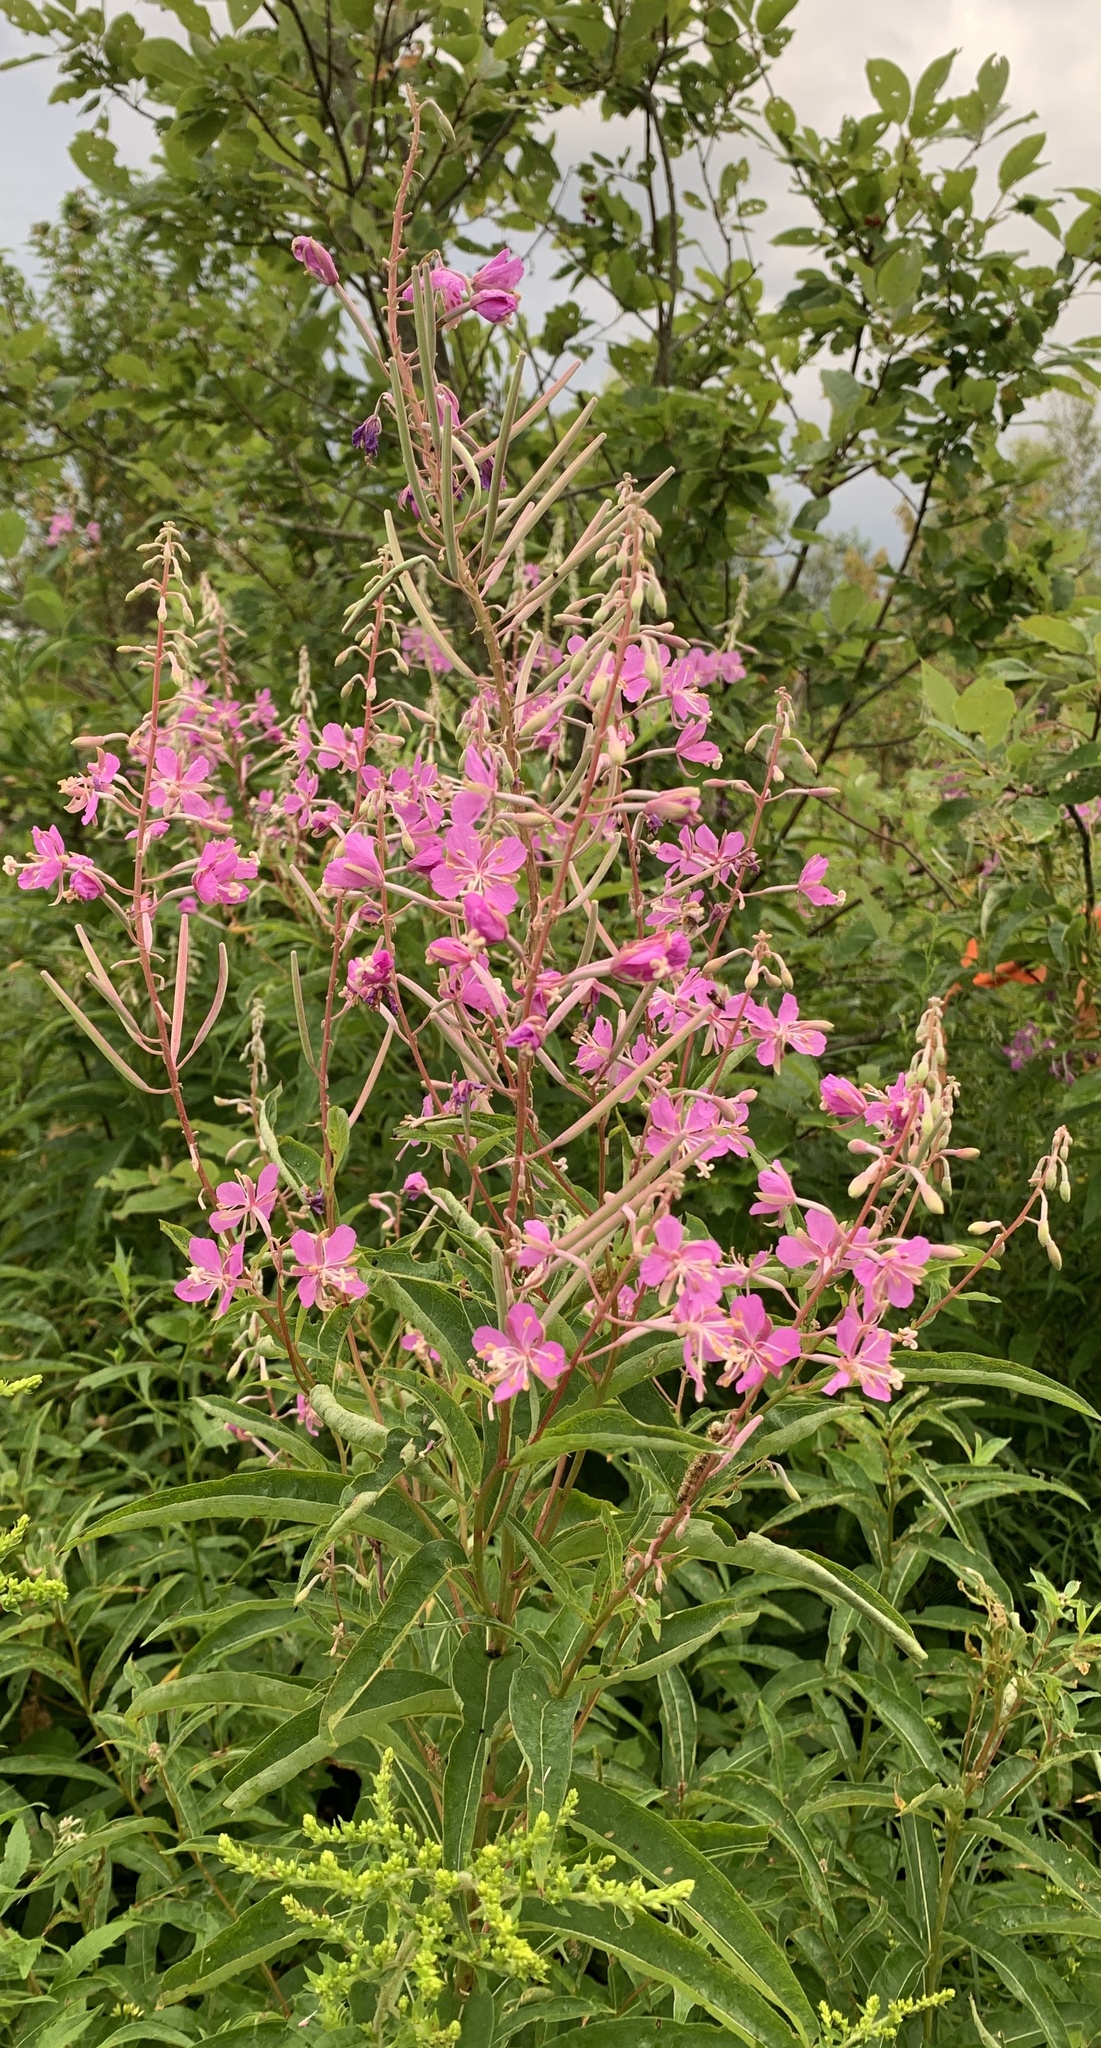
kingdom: Plantae
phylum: Tracheophyta
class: Magnoliopsida
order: Myrtales
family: Onagraceae
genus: Chamaenerion
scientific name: Chamaenerion angustifolium
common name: Fireweed
